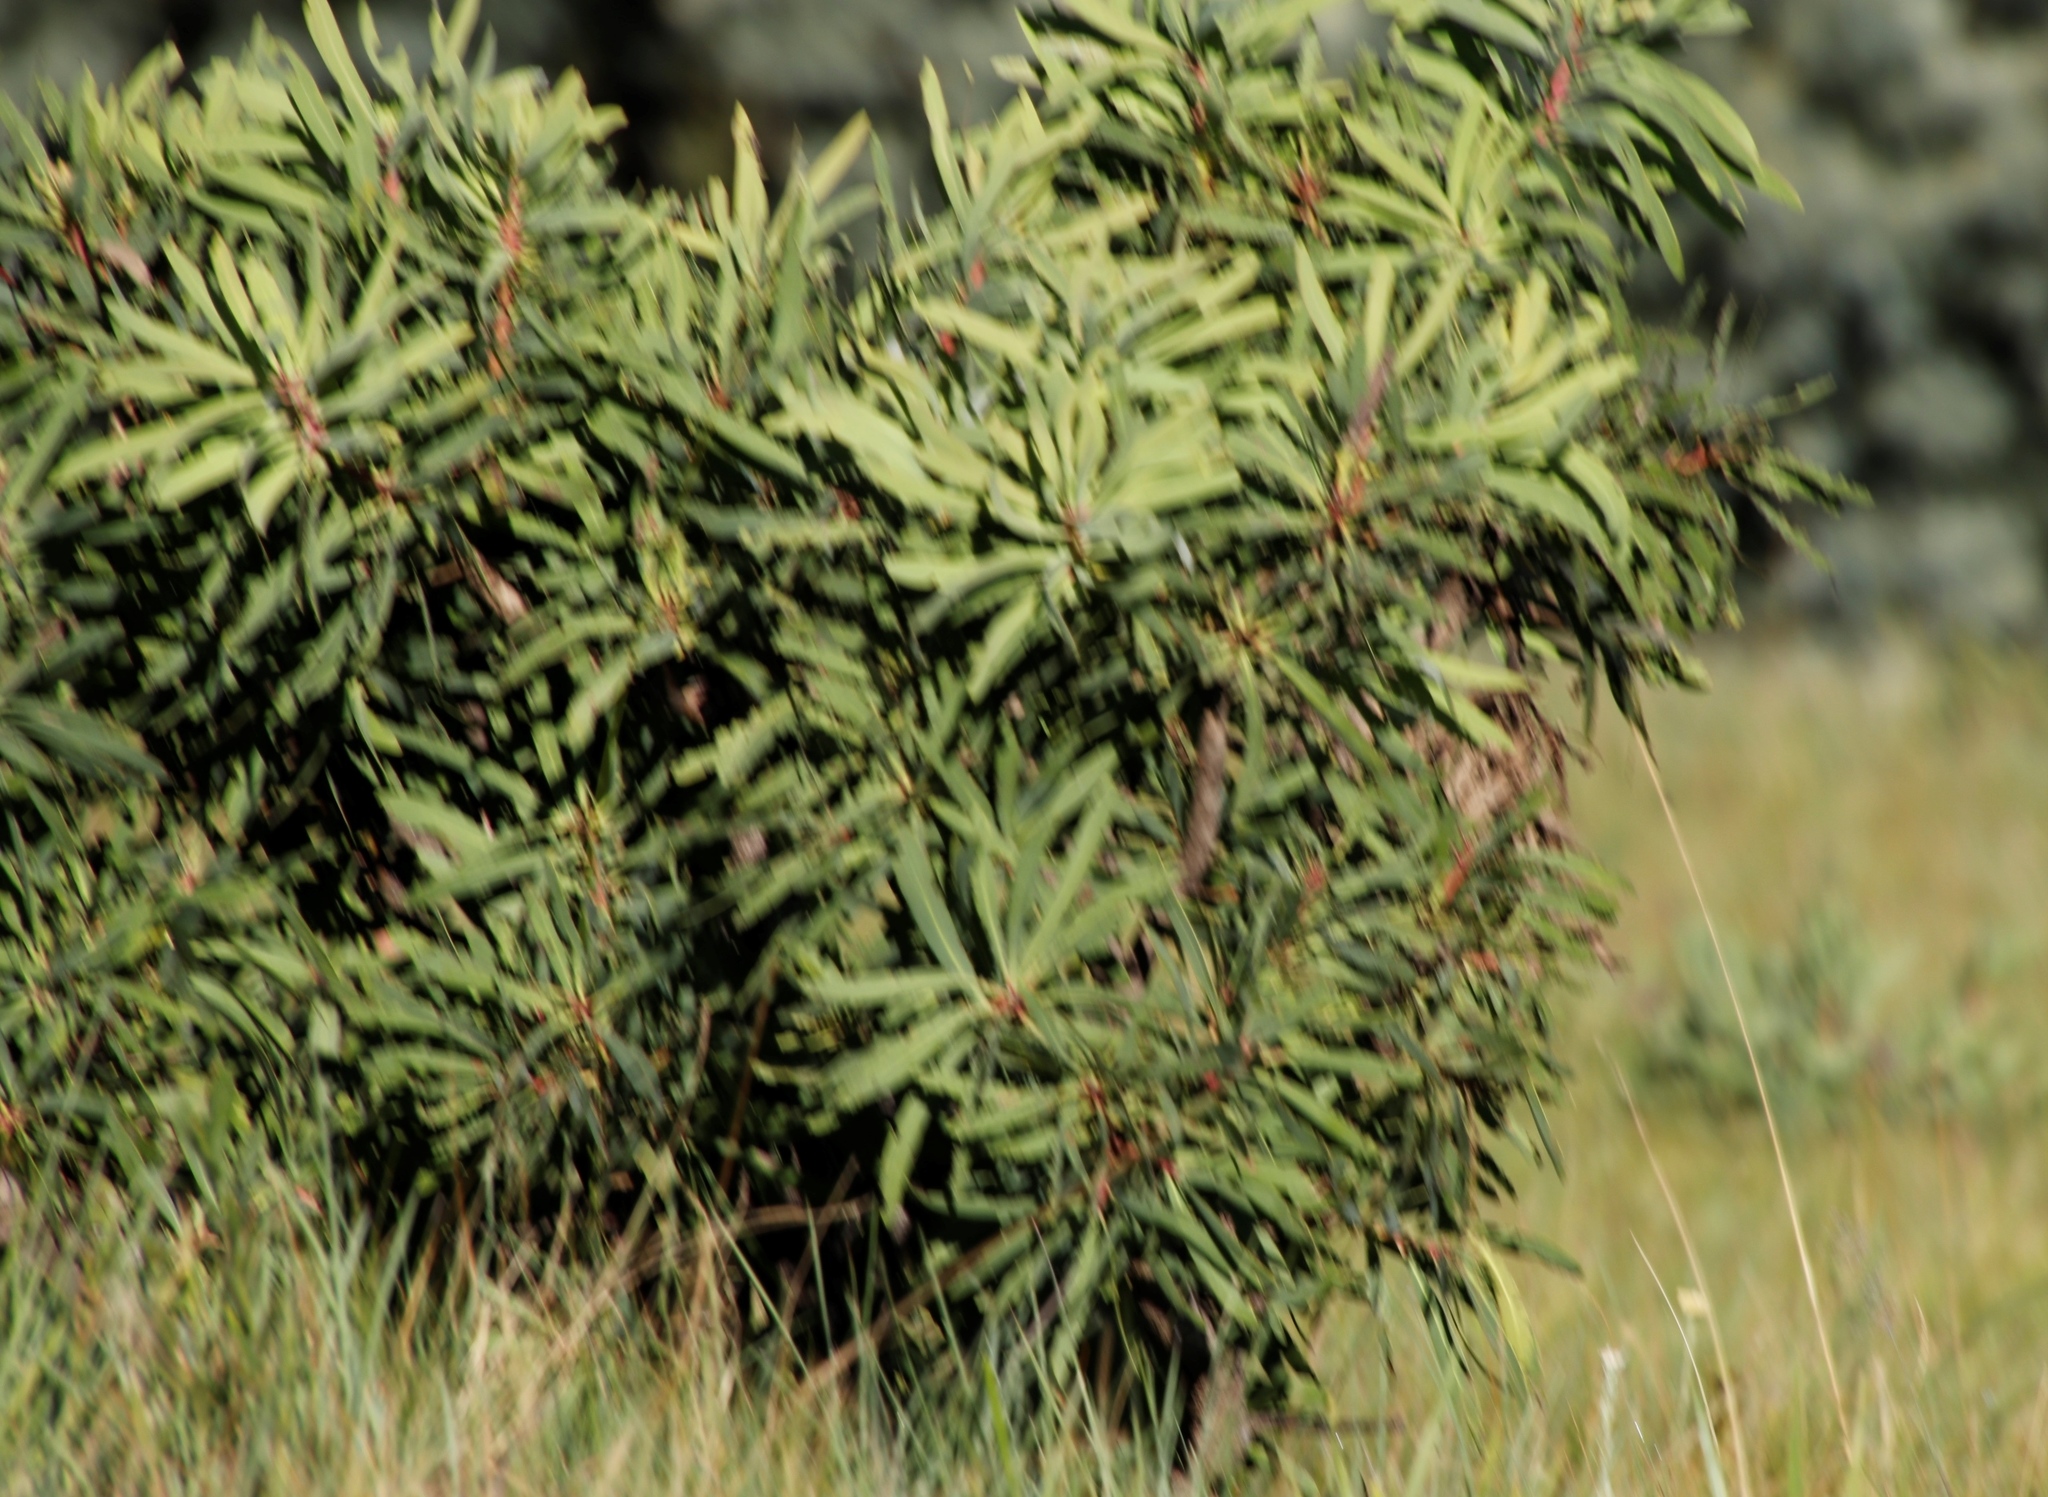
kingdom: Plantae
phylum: Tracheophyta
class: Magnoliopsida
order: Proteales
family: Proteaceae
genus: Protea
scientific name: Protea caffra
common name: Common sugarbush
